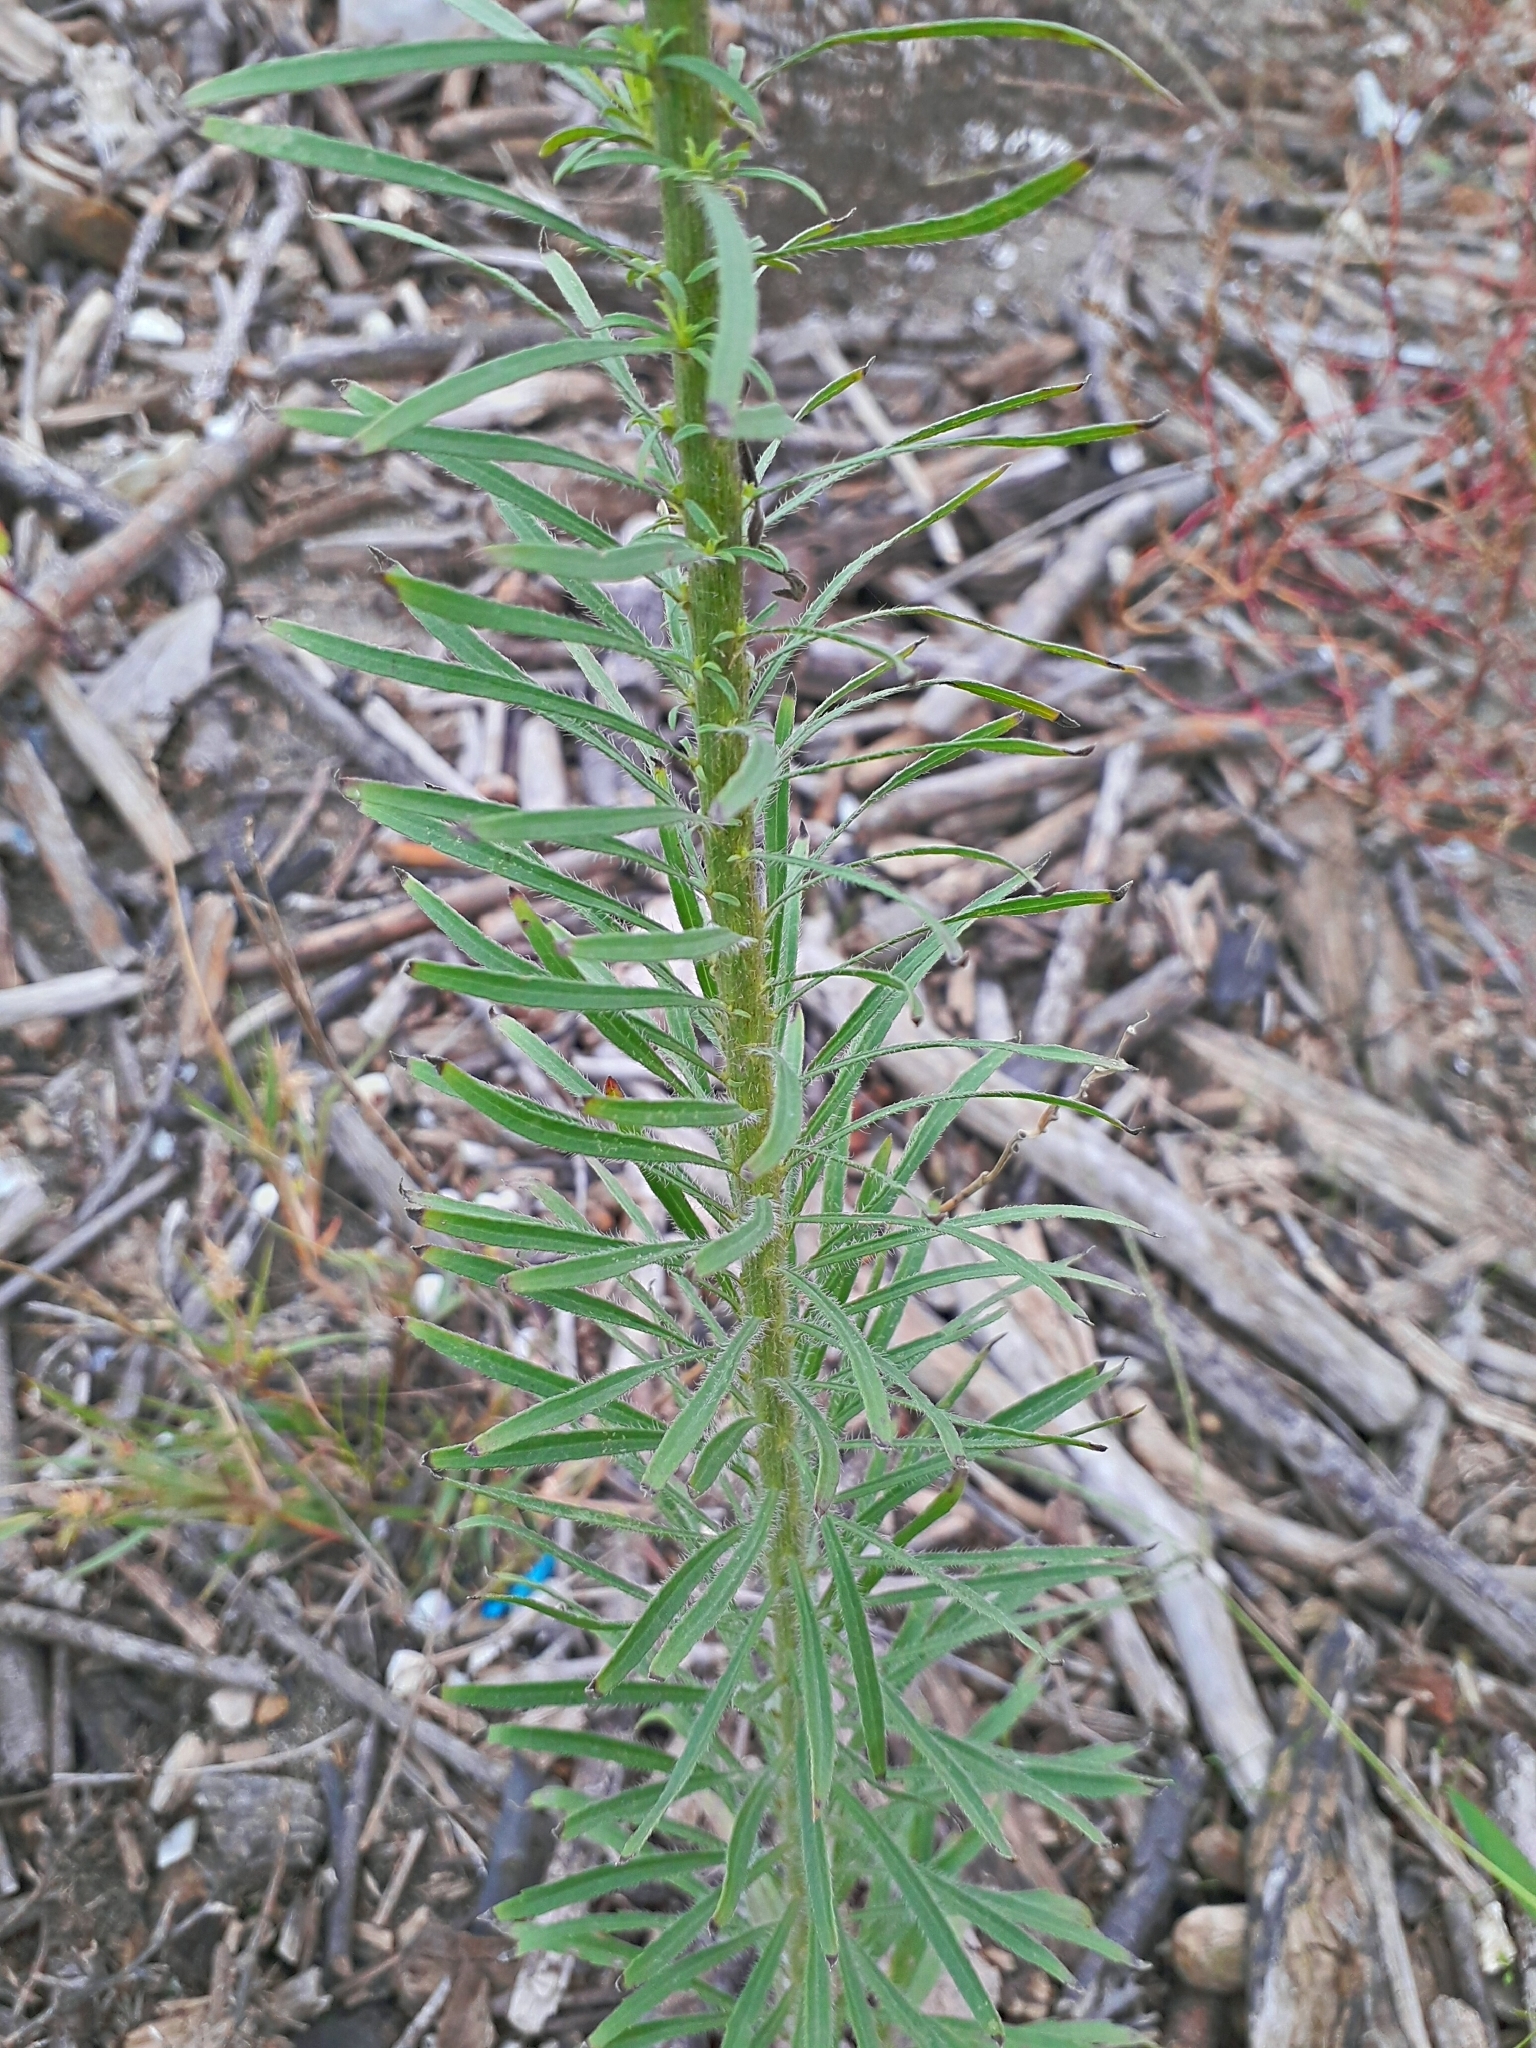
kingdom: Plantae
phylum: Tracheophyta
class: Magnoliopsida
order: Asterales
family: Asteraceae
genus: Erigeron
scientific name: Erigeron canadensis
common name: Canadian fleabane
